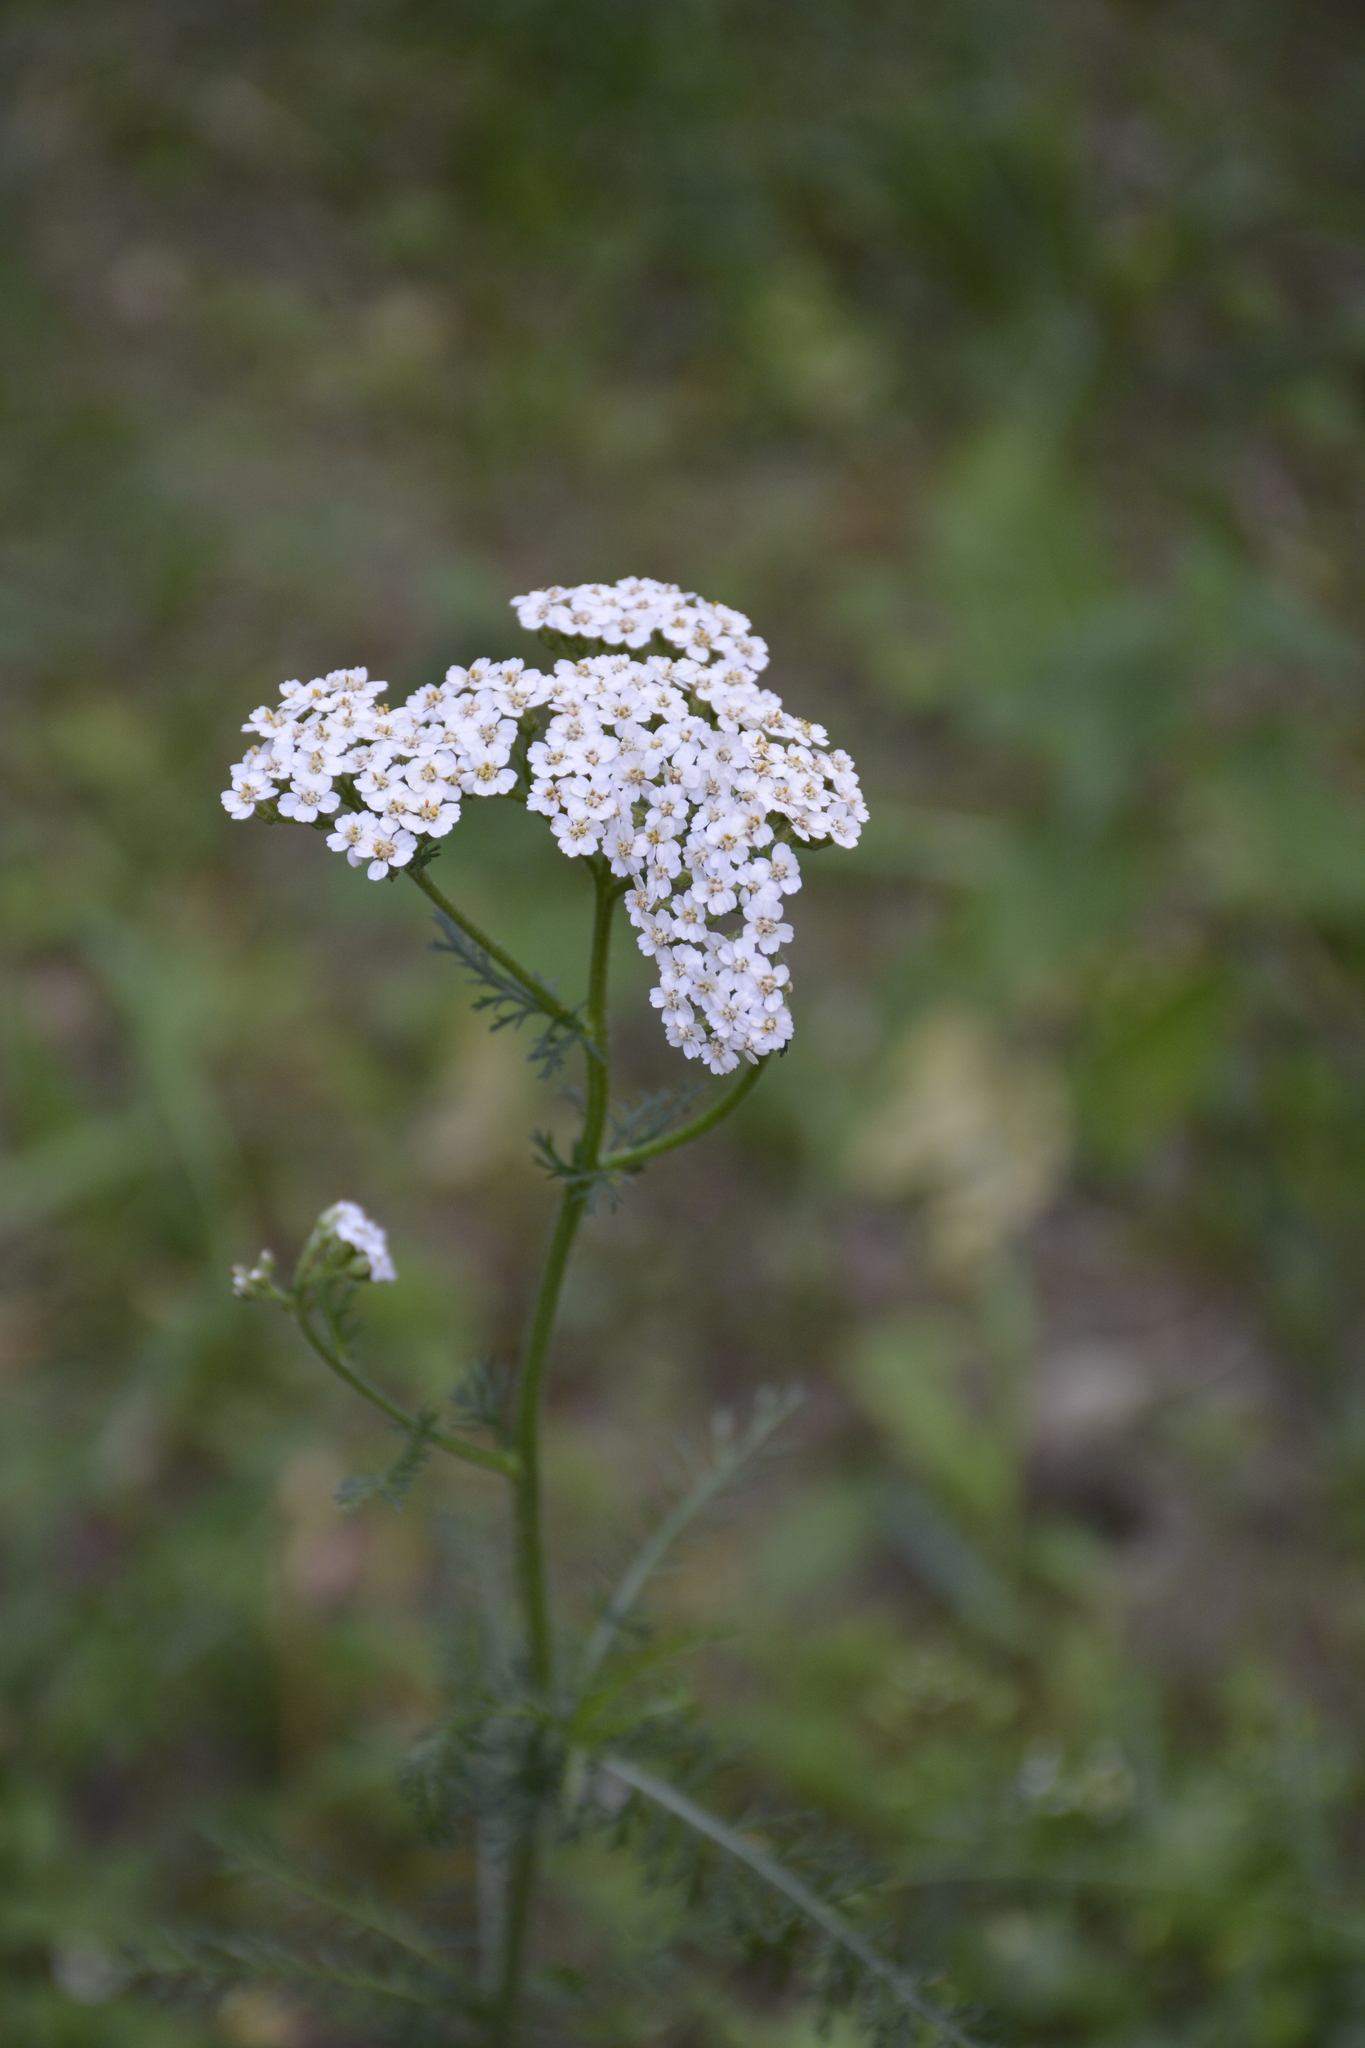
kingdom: Plantae
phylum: Tracheophyta
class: Magnoliopsida
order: Asterales
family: Asteraceae
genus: Achillea
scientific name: Achillea millefolium
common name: Yarrow
